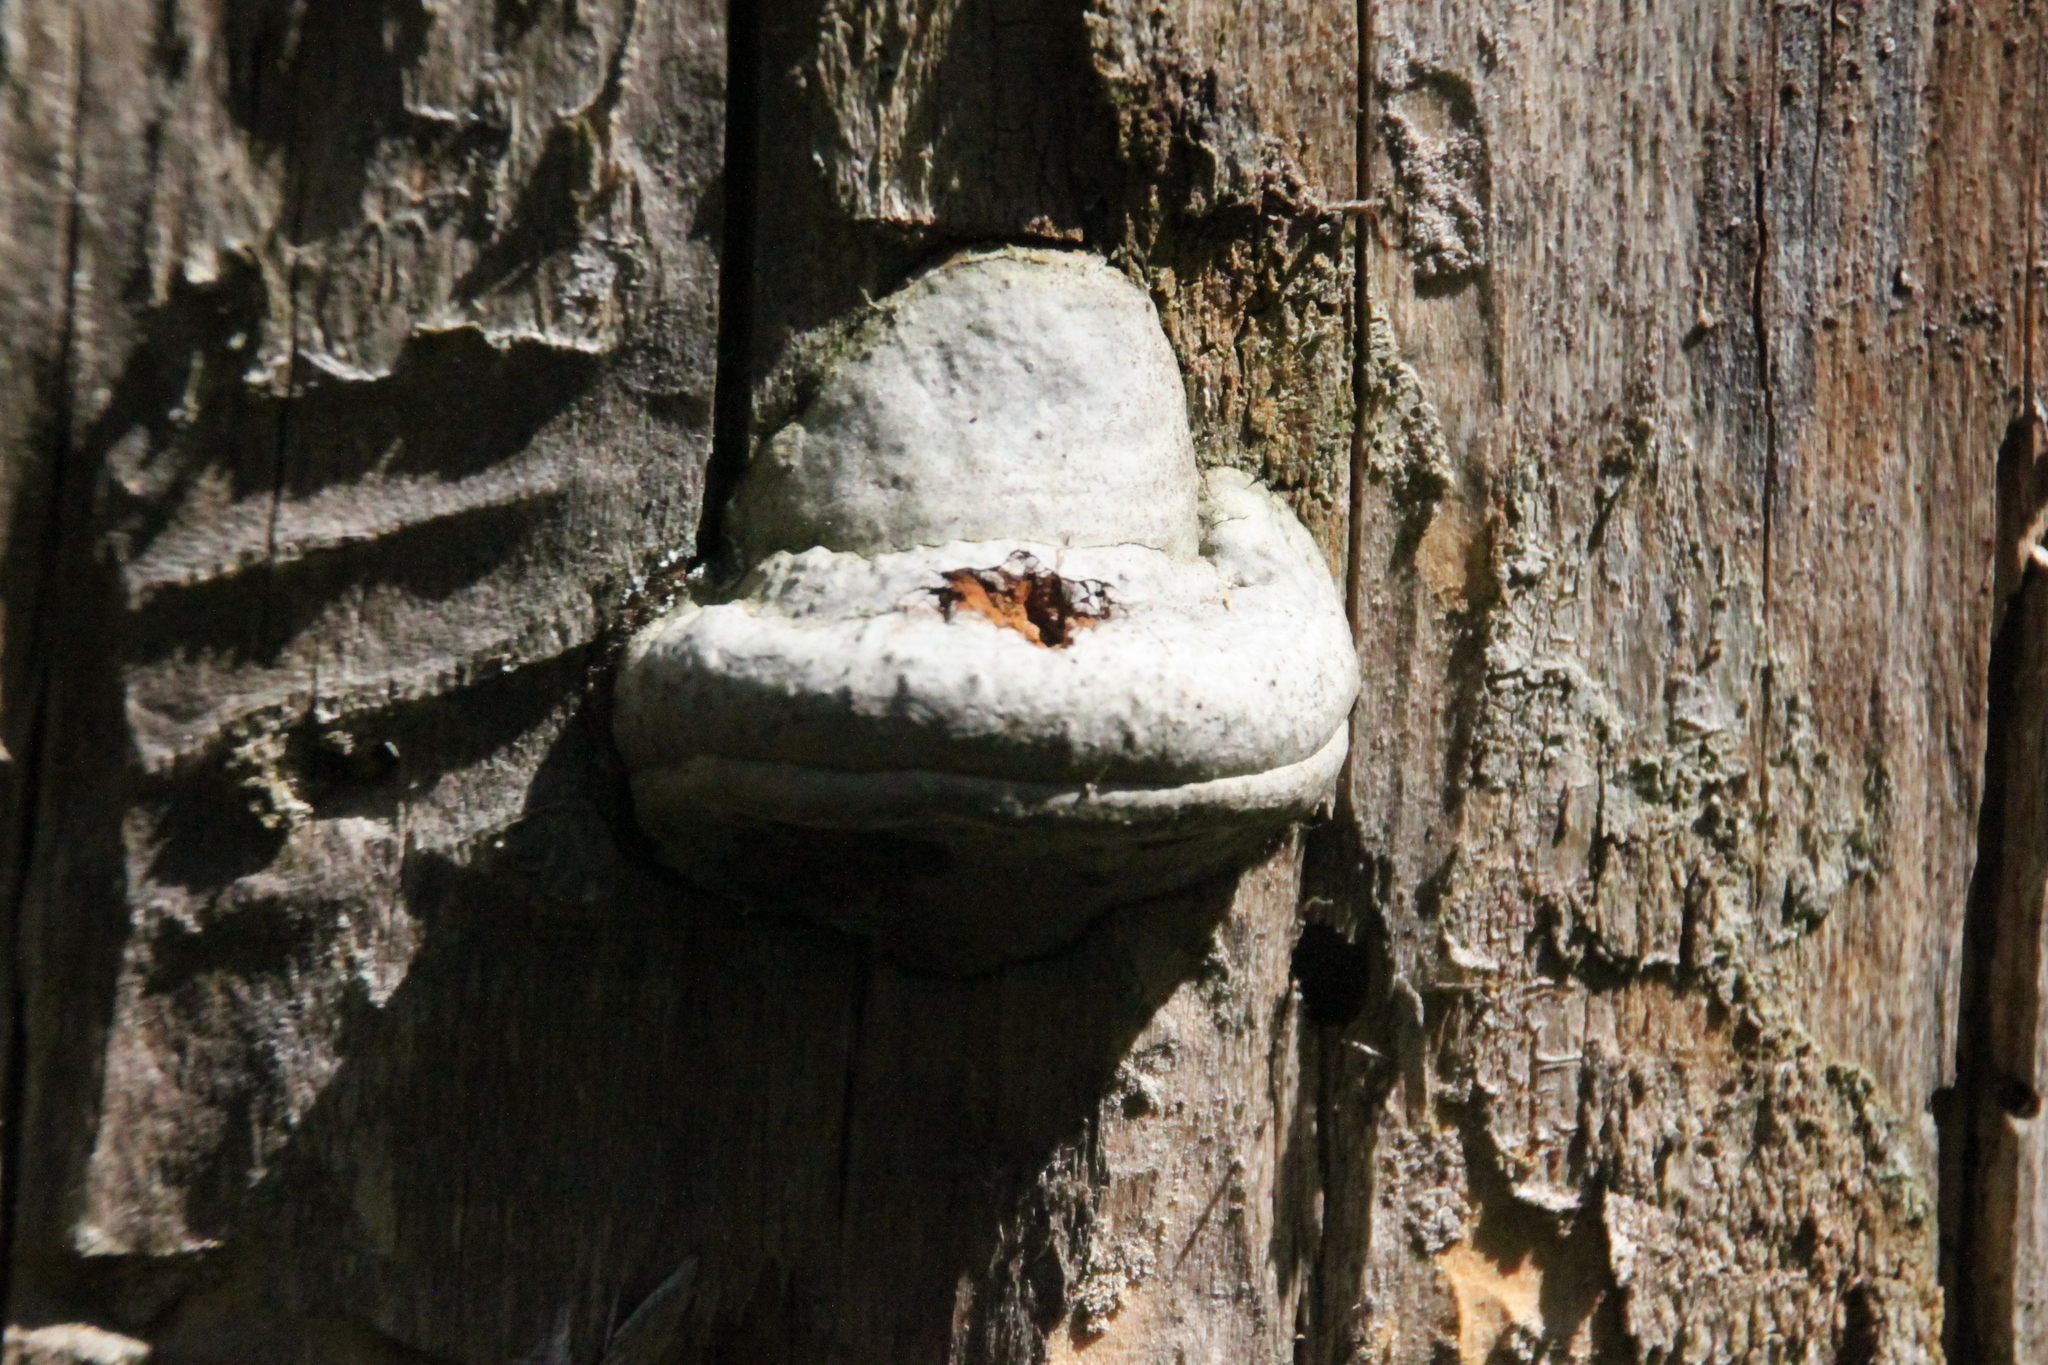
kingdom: Fungi
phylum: Basidiomycota
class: Agaricomycetes
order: Polyporales
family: Polyporaceae
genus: Fomes
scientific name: Fomes fomentarius
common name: Hoof fungus
